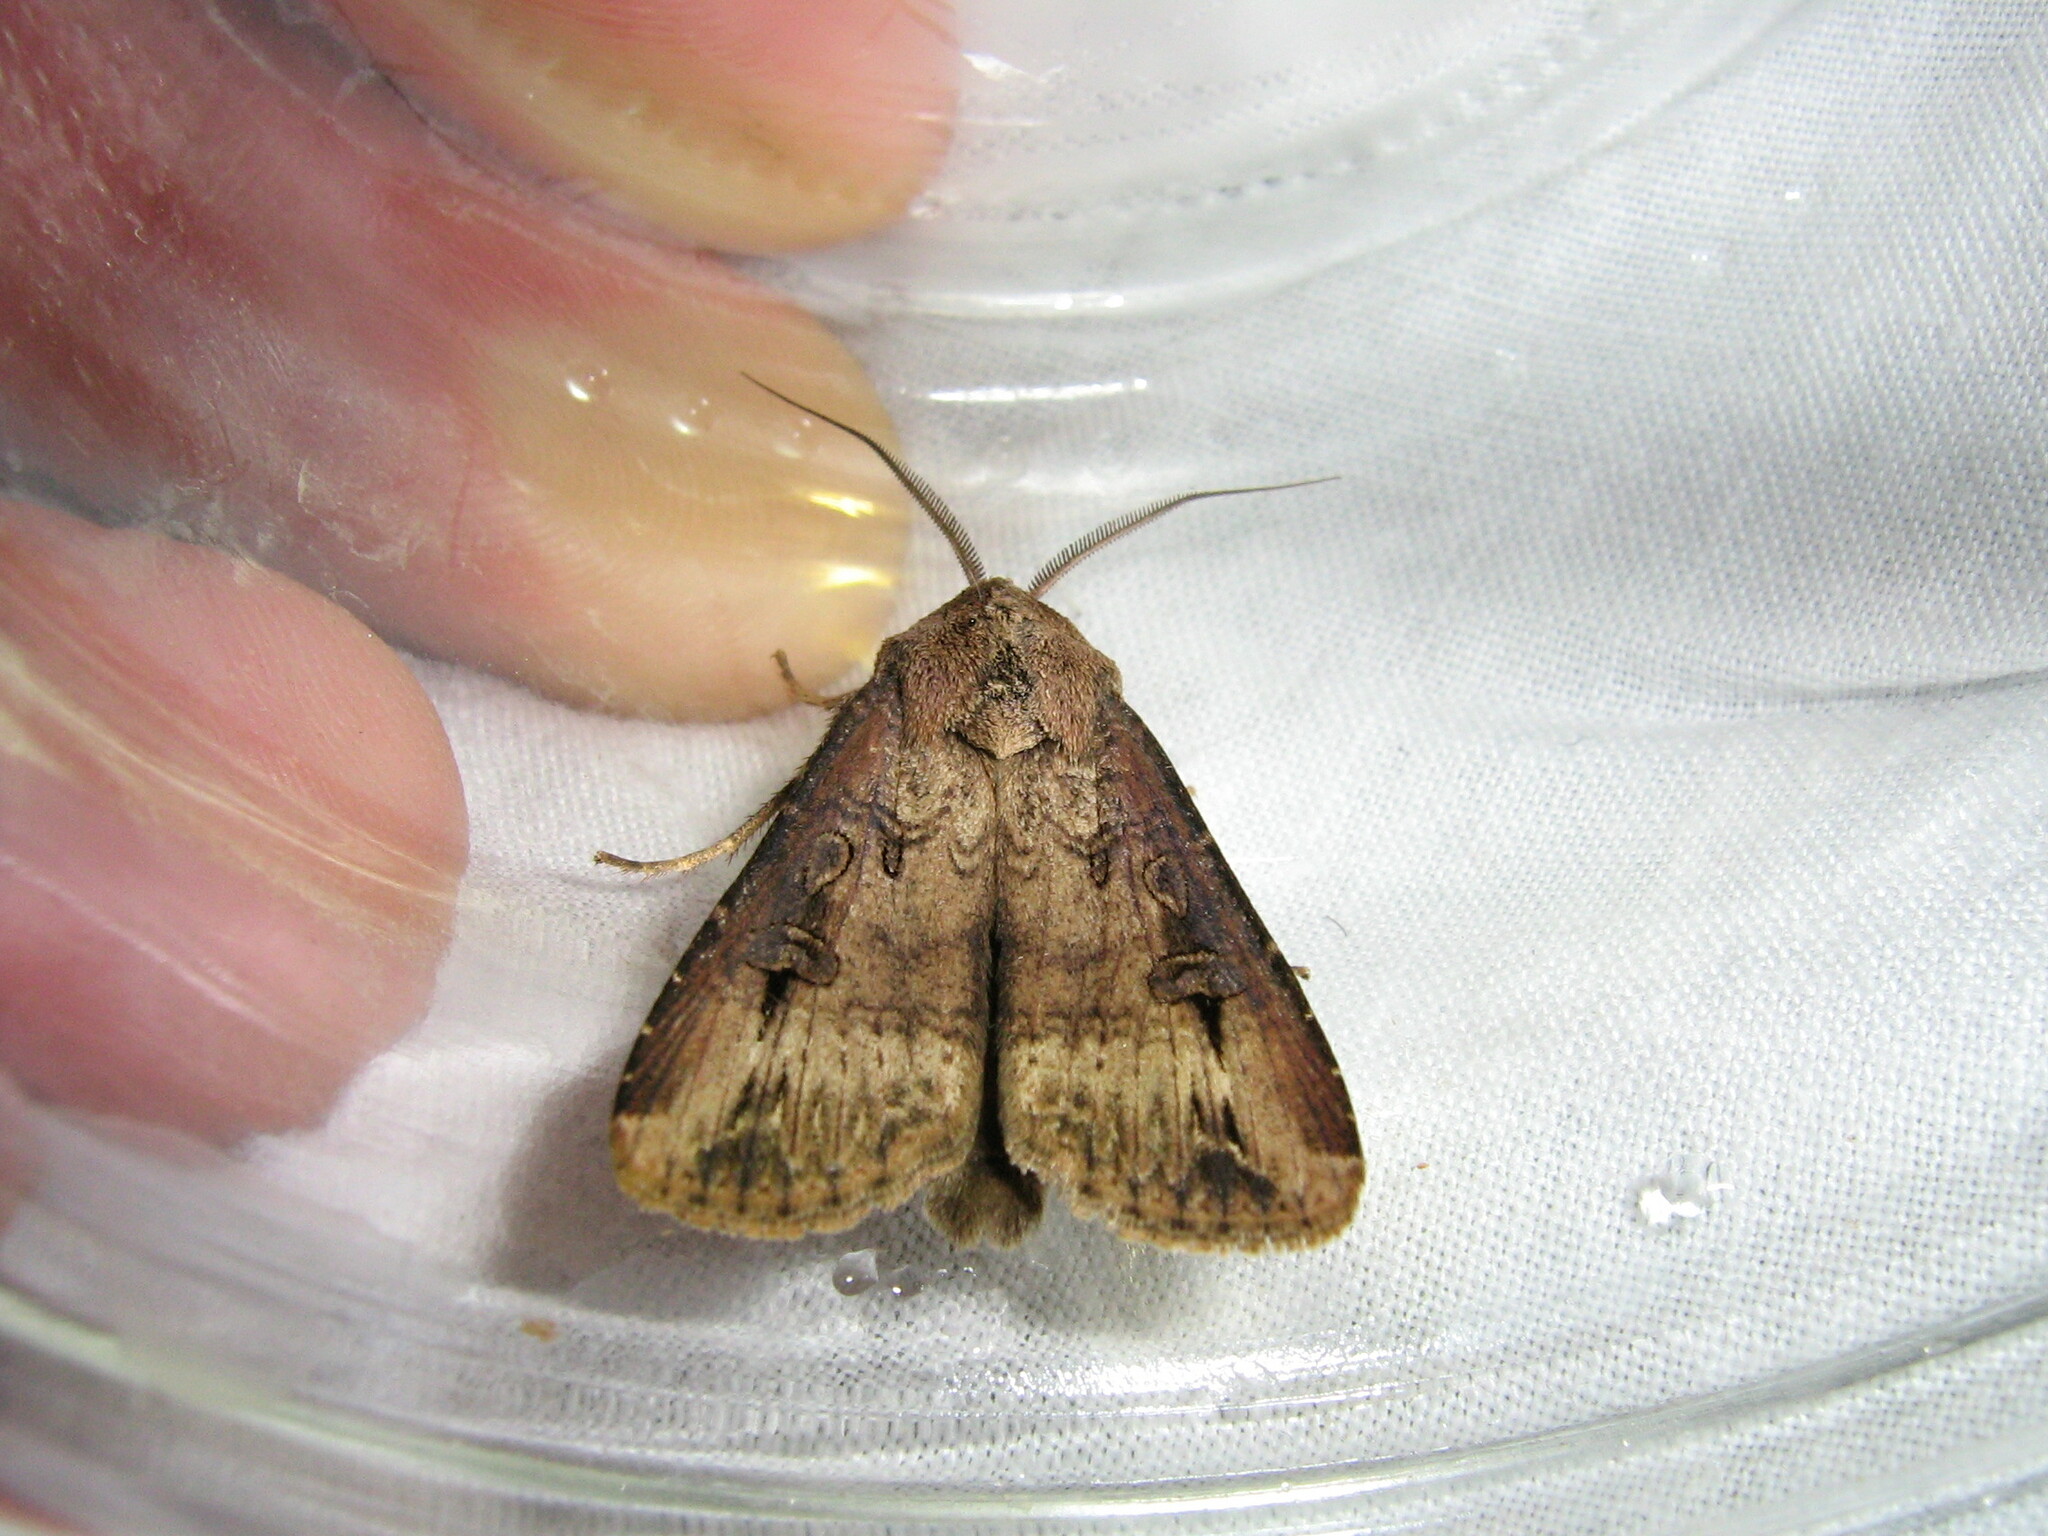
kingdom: Animalia
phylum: Arthropoda
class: Insecta
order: Lepidoptera
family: Noctuidae
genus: Agrotis
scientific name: Agrotis ipsilon
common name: Dark sword-grass
